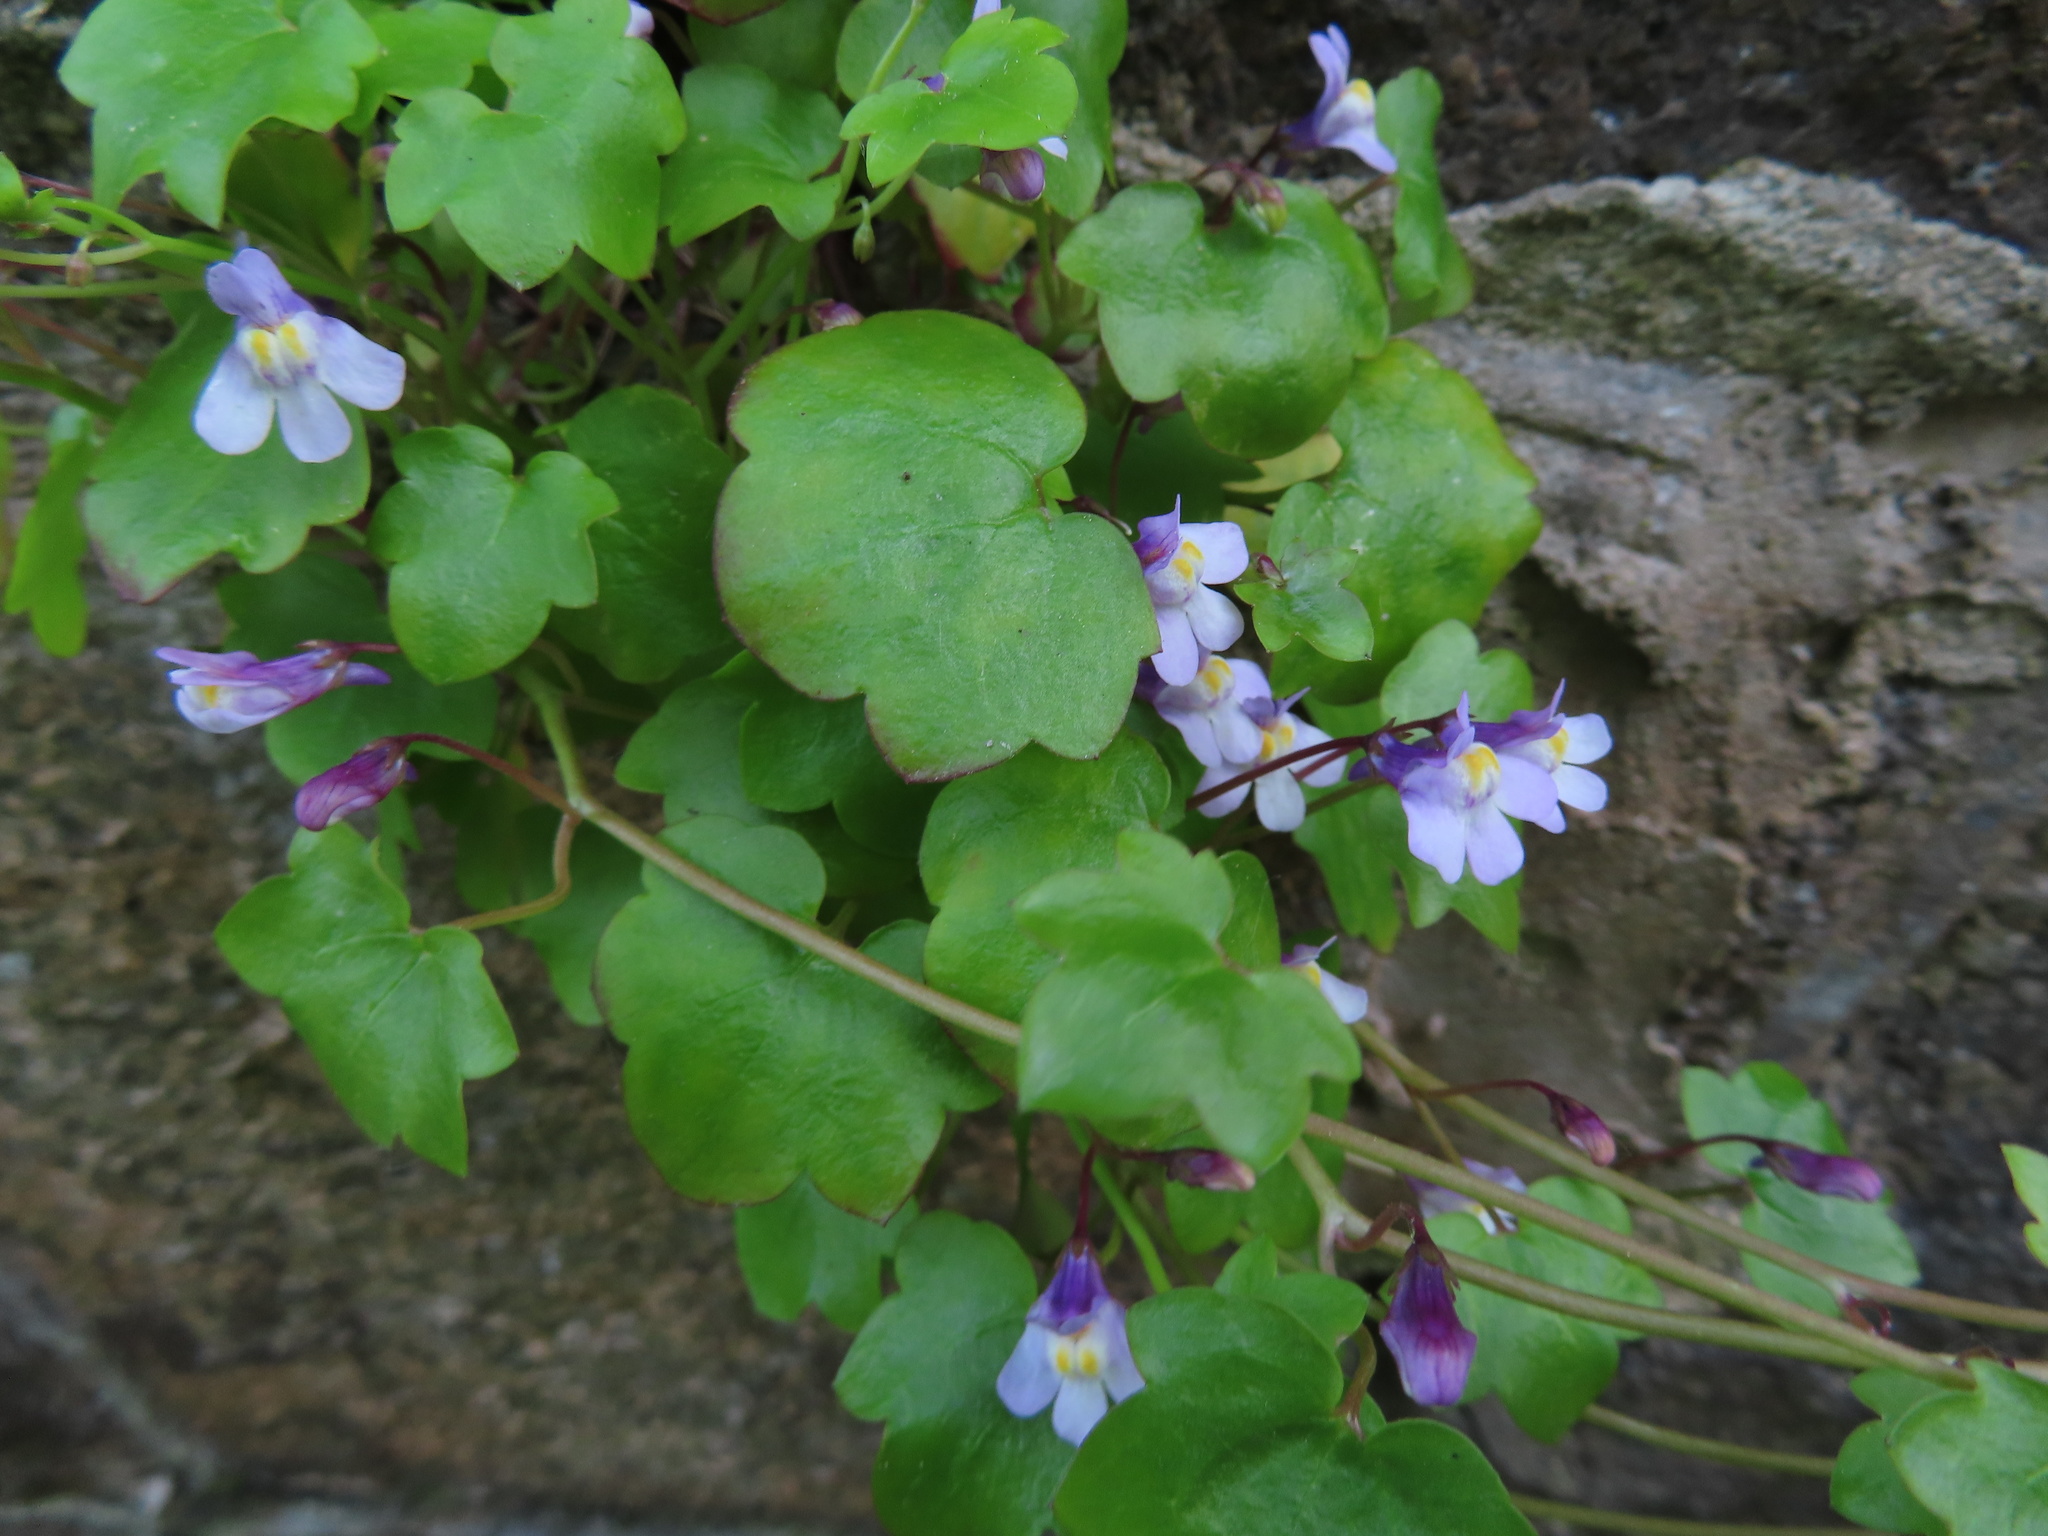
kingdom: Plantae
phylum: Tracheophyta
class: Magnoliopsida
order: Lamiales
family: Plantaginaceae
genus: Cymbalaria
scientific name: Cymbalaria muralis
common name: Ivy-leaved toadflax
